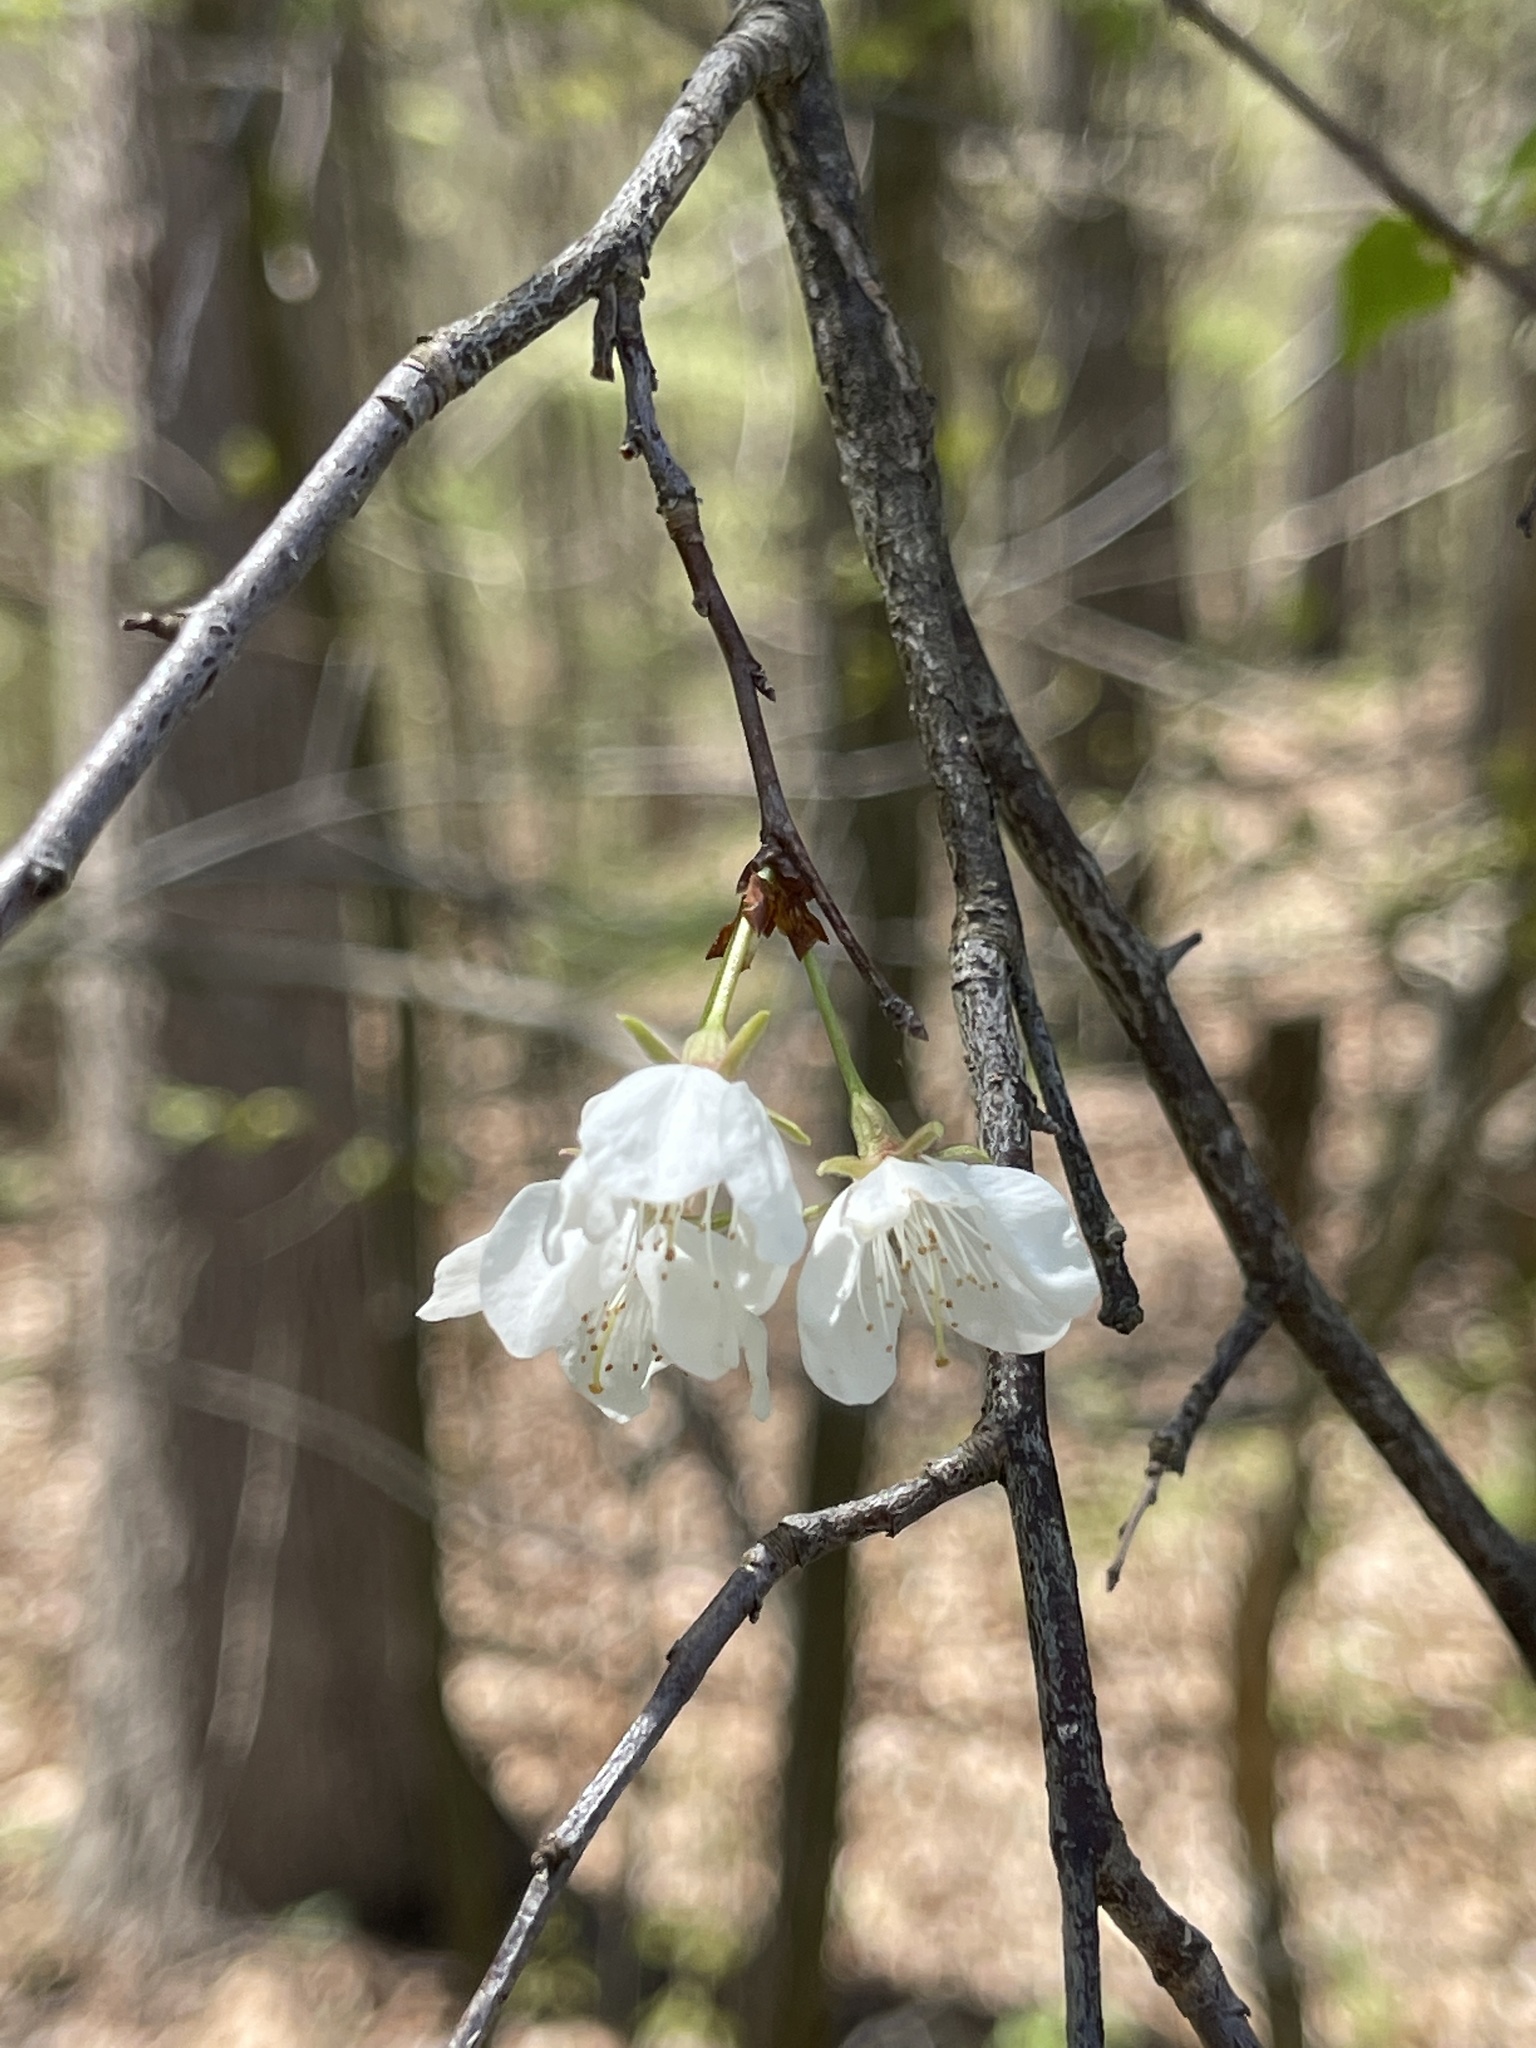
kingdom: Plantae
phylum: Tracheophyta
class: Magnoliopsida
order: Rosales
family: Rosaceae
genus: Prunus
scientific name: Prunus americana
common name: American plum
